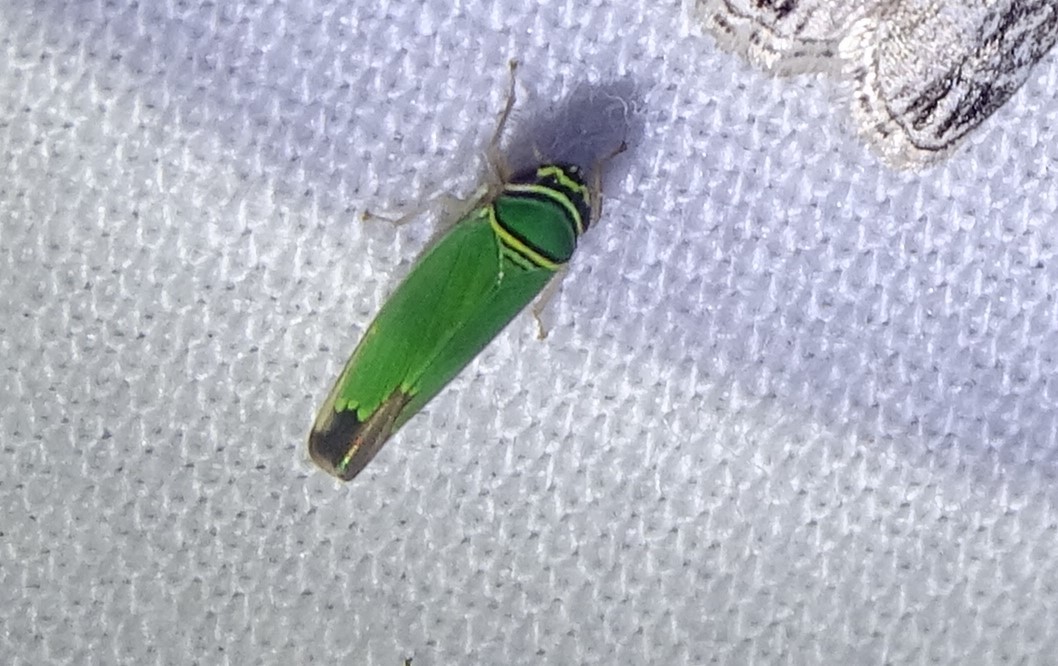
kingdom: Animalia
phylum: Arthropoda
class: Insecta
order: Hemiptera
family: Cicadellidae
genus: Tylozygus
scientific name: Tylozygus geometricus
